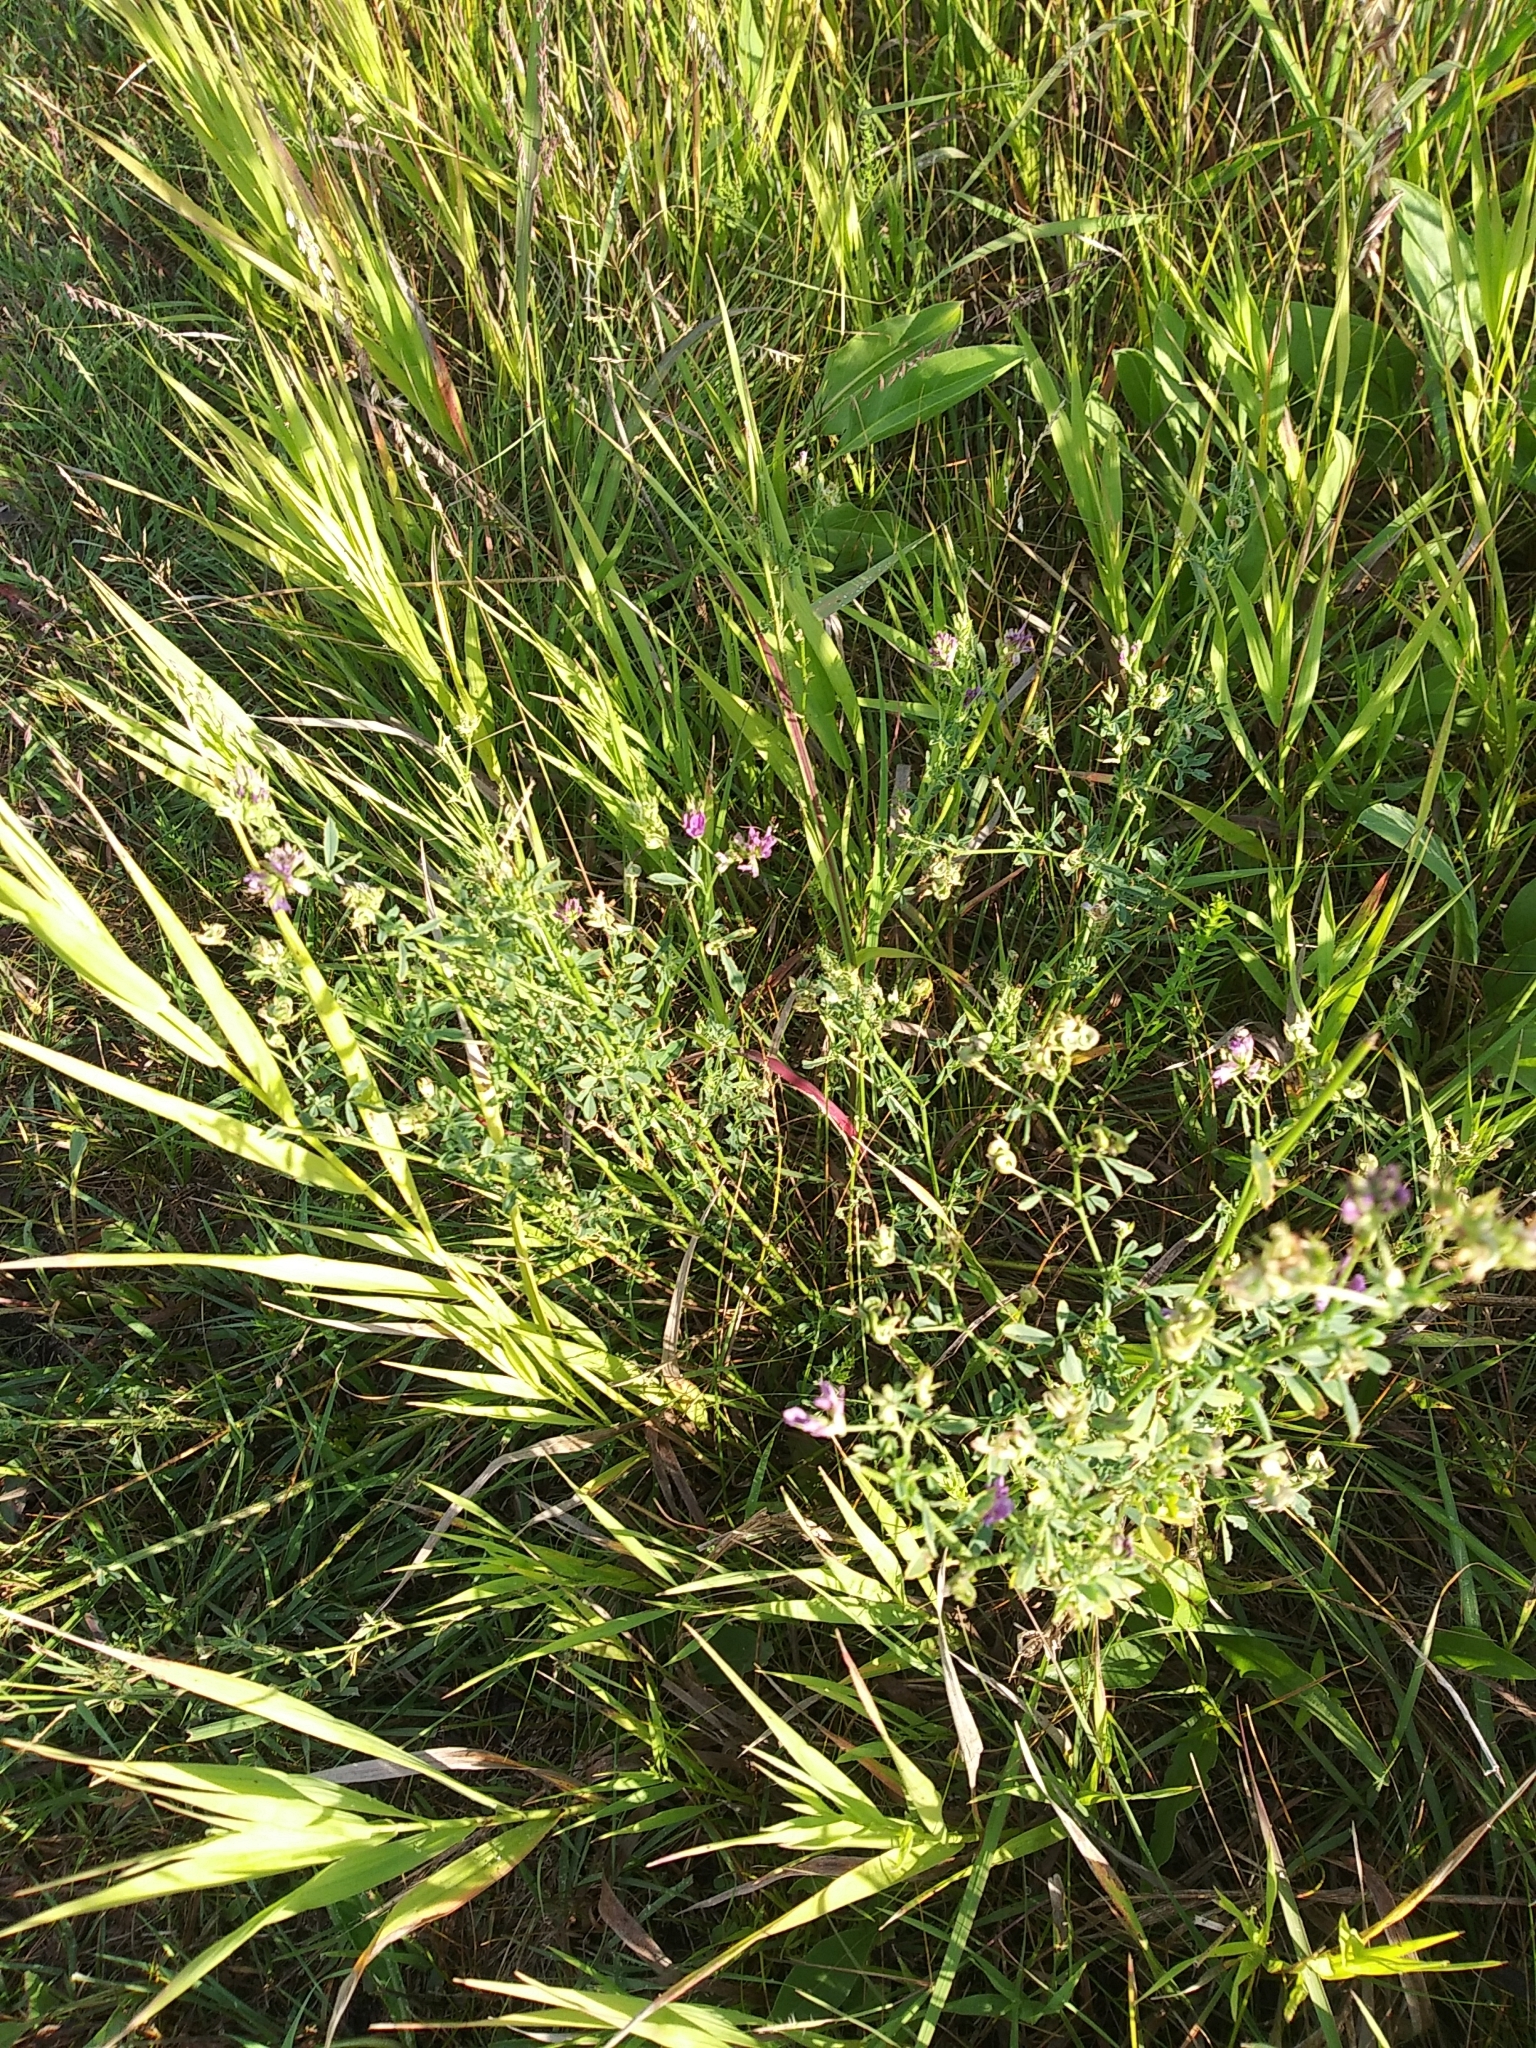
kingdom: Plantae
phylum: Tracheophyta
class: Magnoliopsida
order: Fabales
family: Fabaceae
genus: Medicago
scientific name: Medicago sativa
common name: Alfalfa
